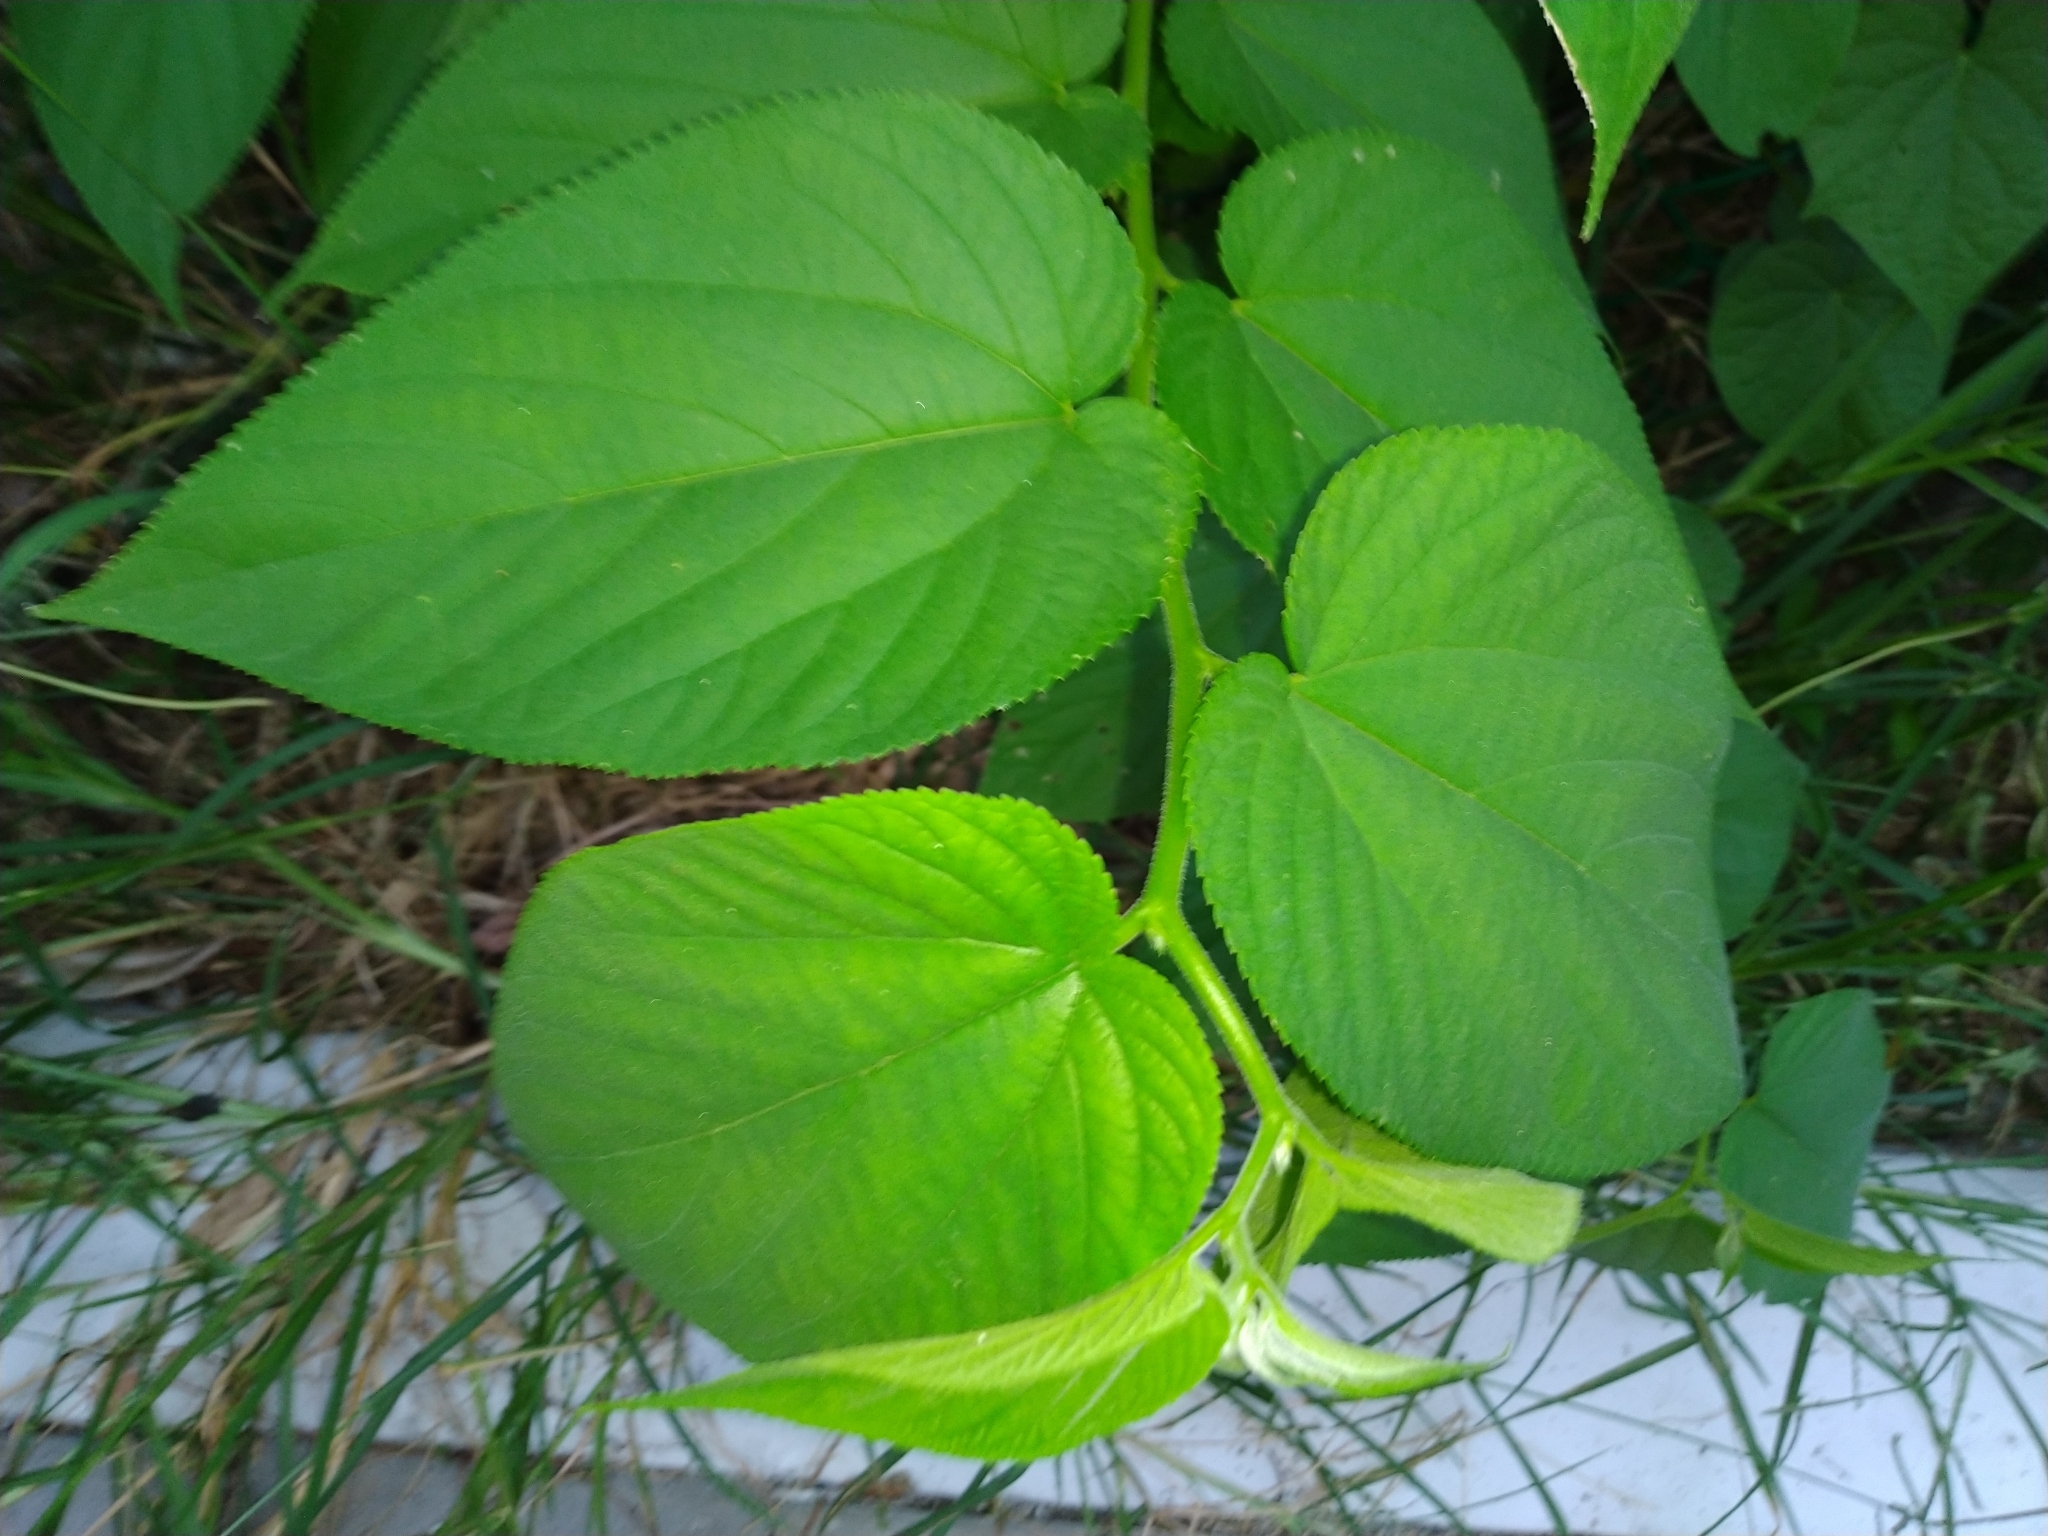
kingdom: Plantae
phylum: Tracheophyta
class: Magnoliopsida
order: Rosales
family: Cannabaceae
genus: Trema
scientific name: Trema orientale
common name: Indian charcoal tree
